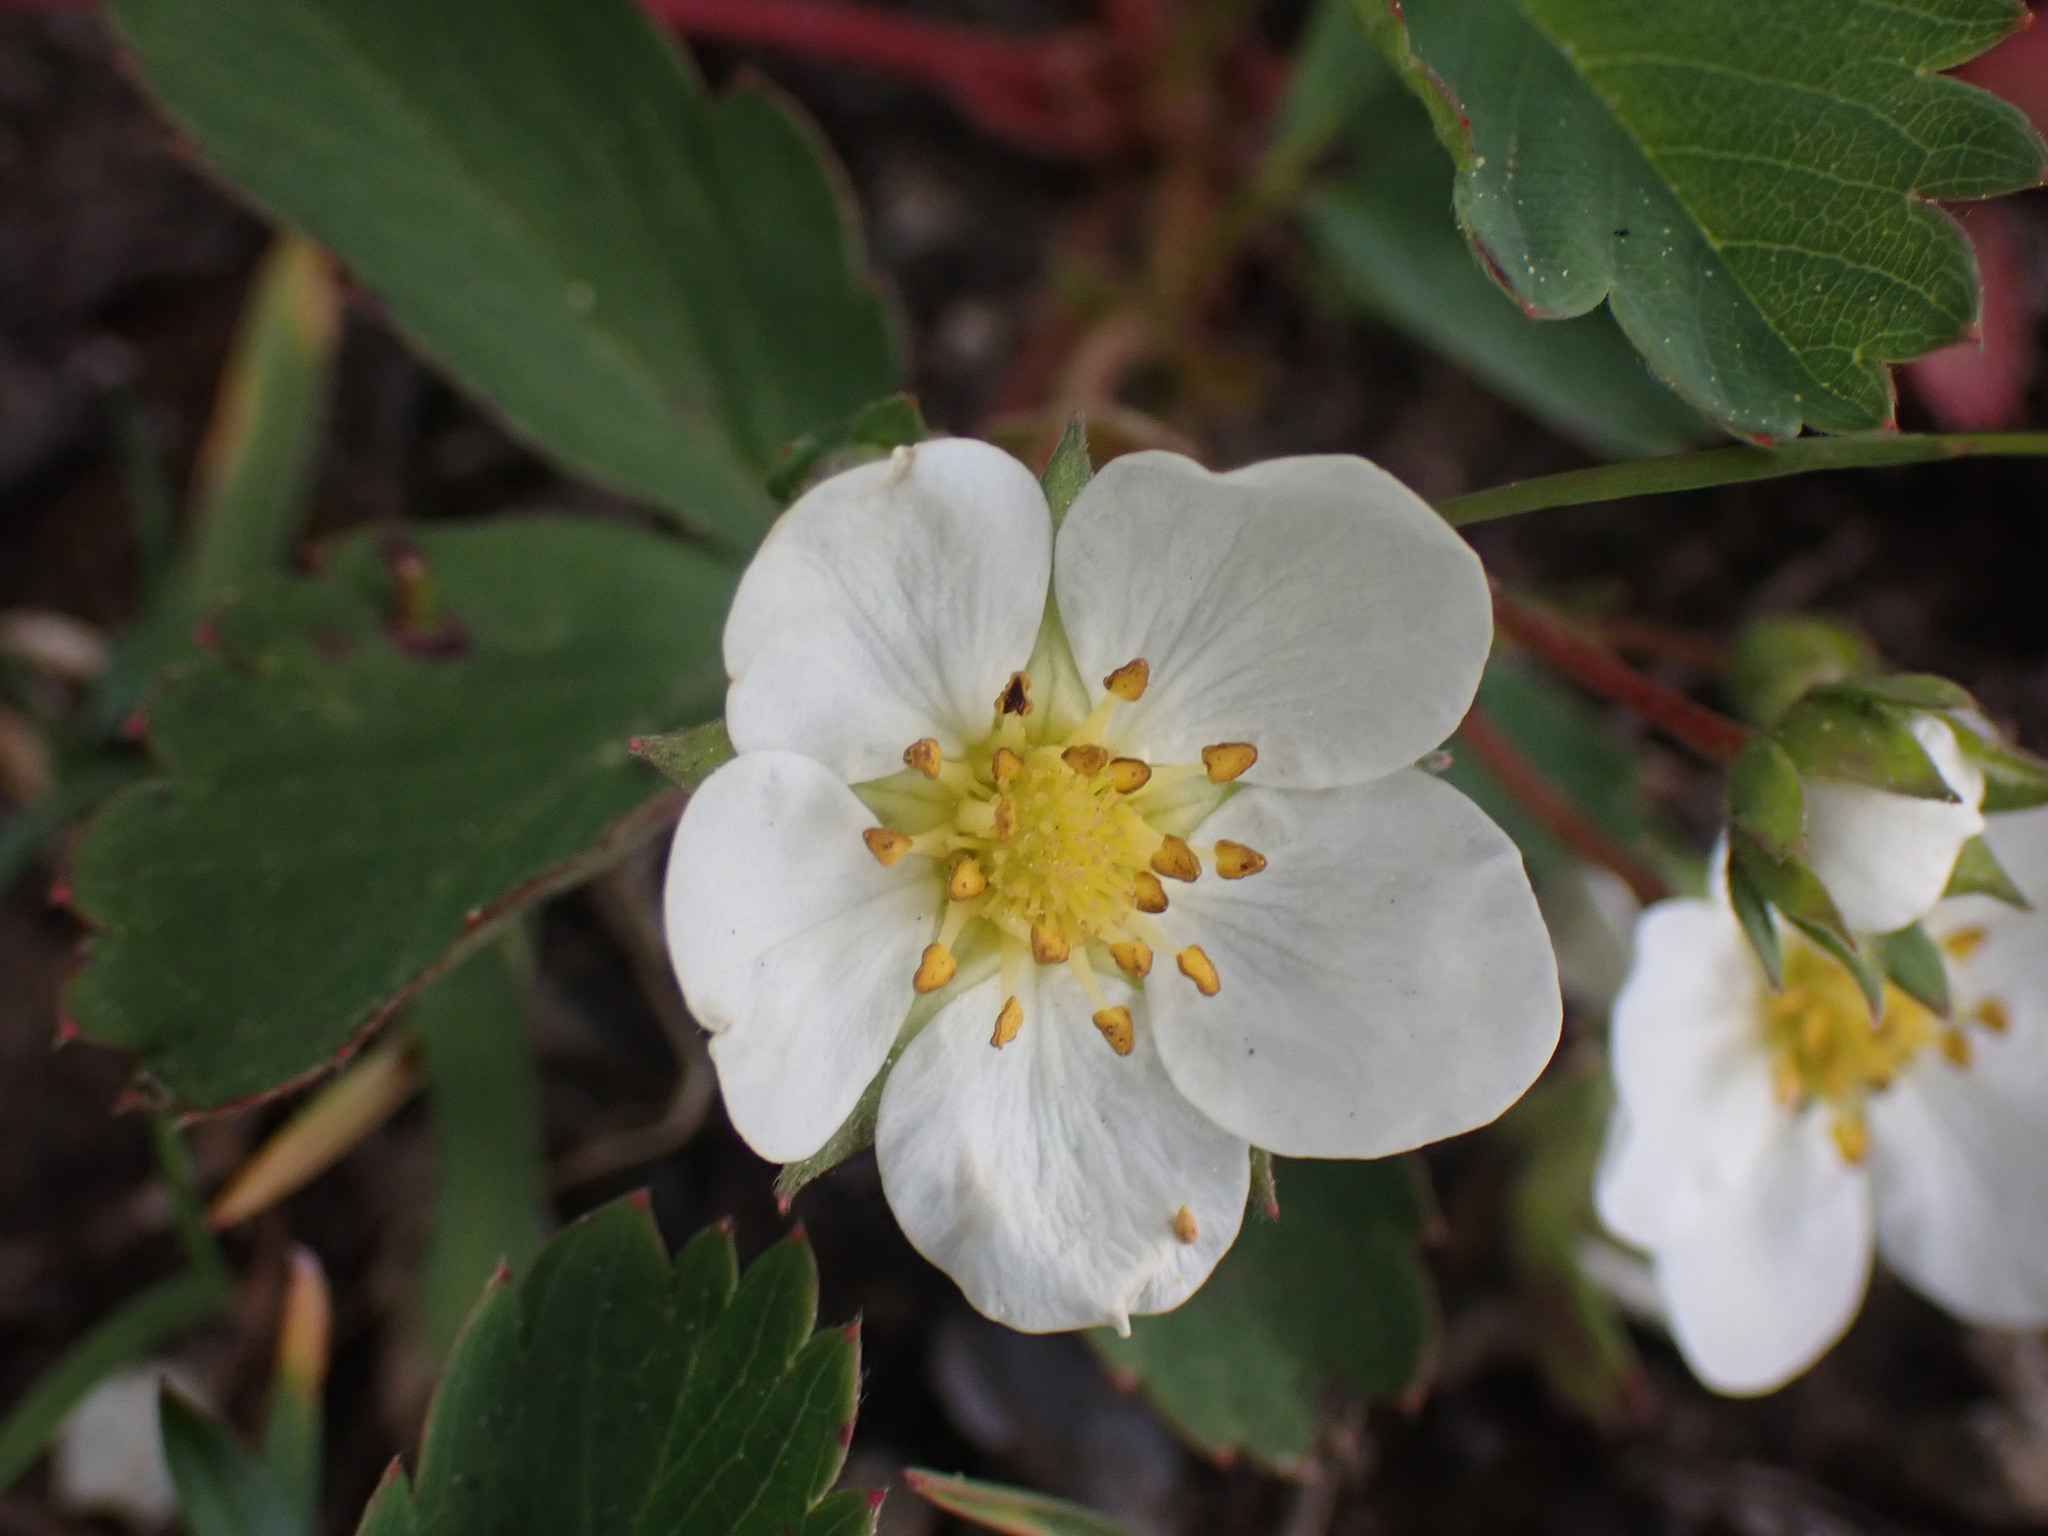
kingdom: Plantae
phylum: Tracheophyta
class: Magnoliopsida
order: Rosales
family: Rosaceae
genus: Fragaria
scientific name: Fragaria virginiana
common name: Thickleaved wild strawberry
